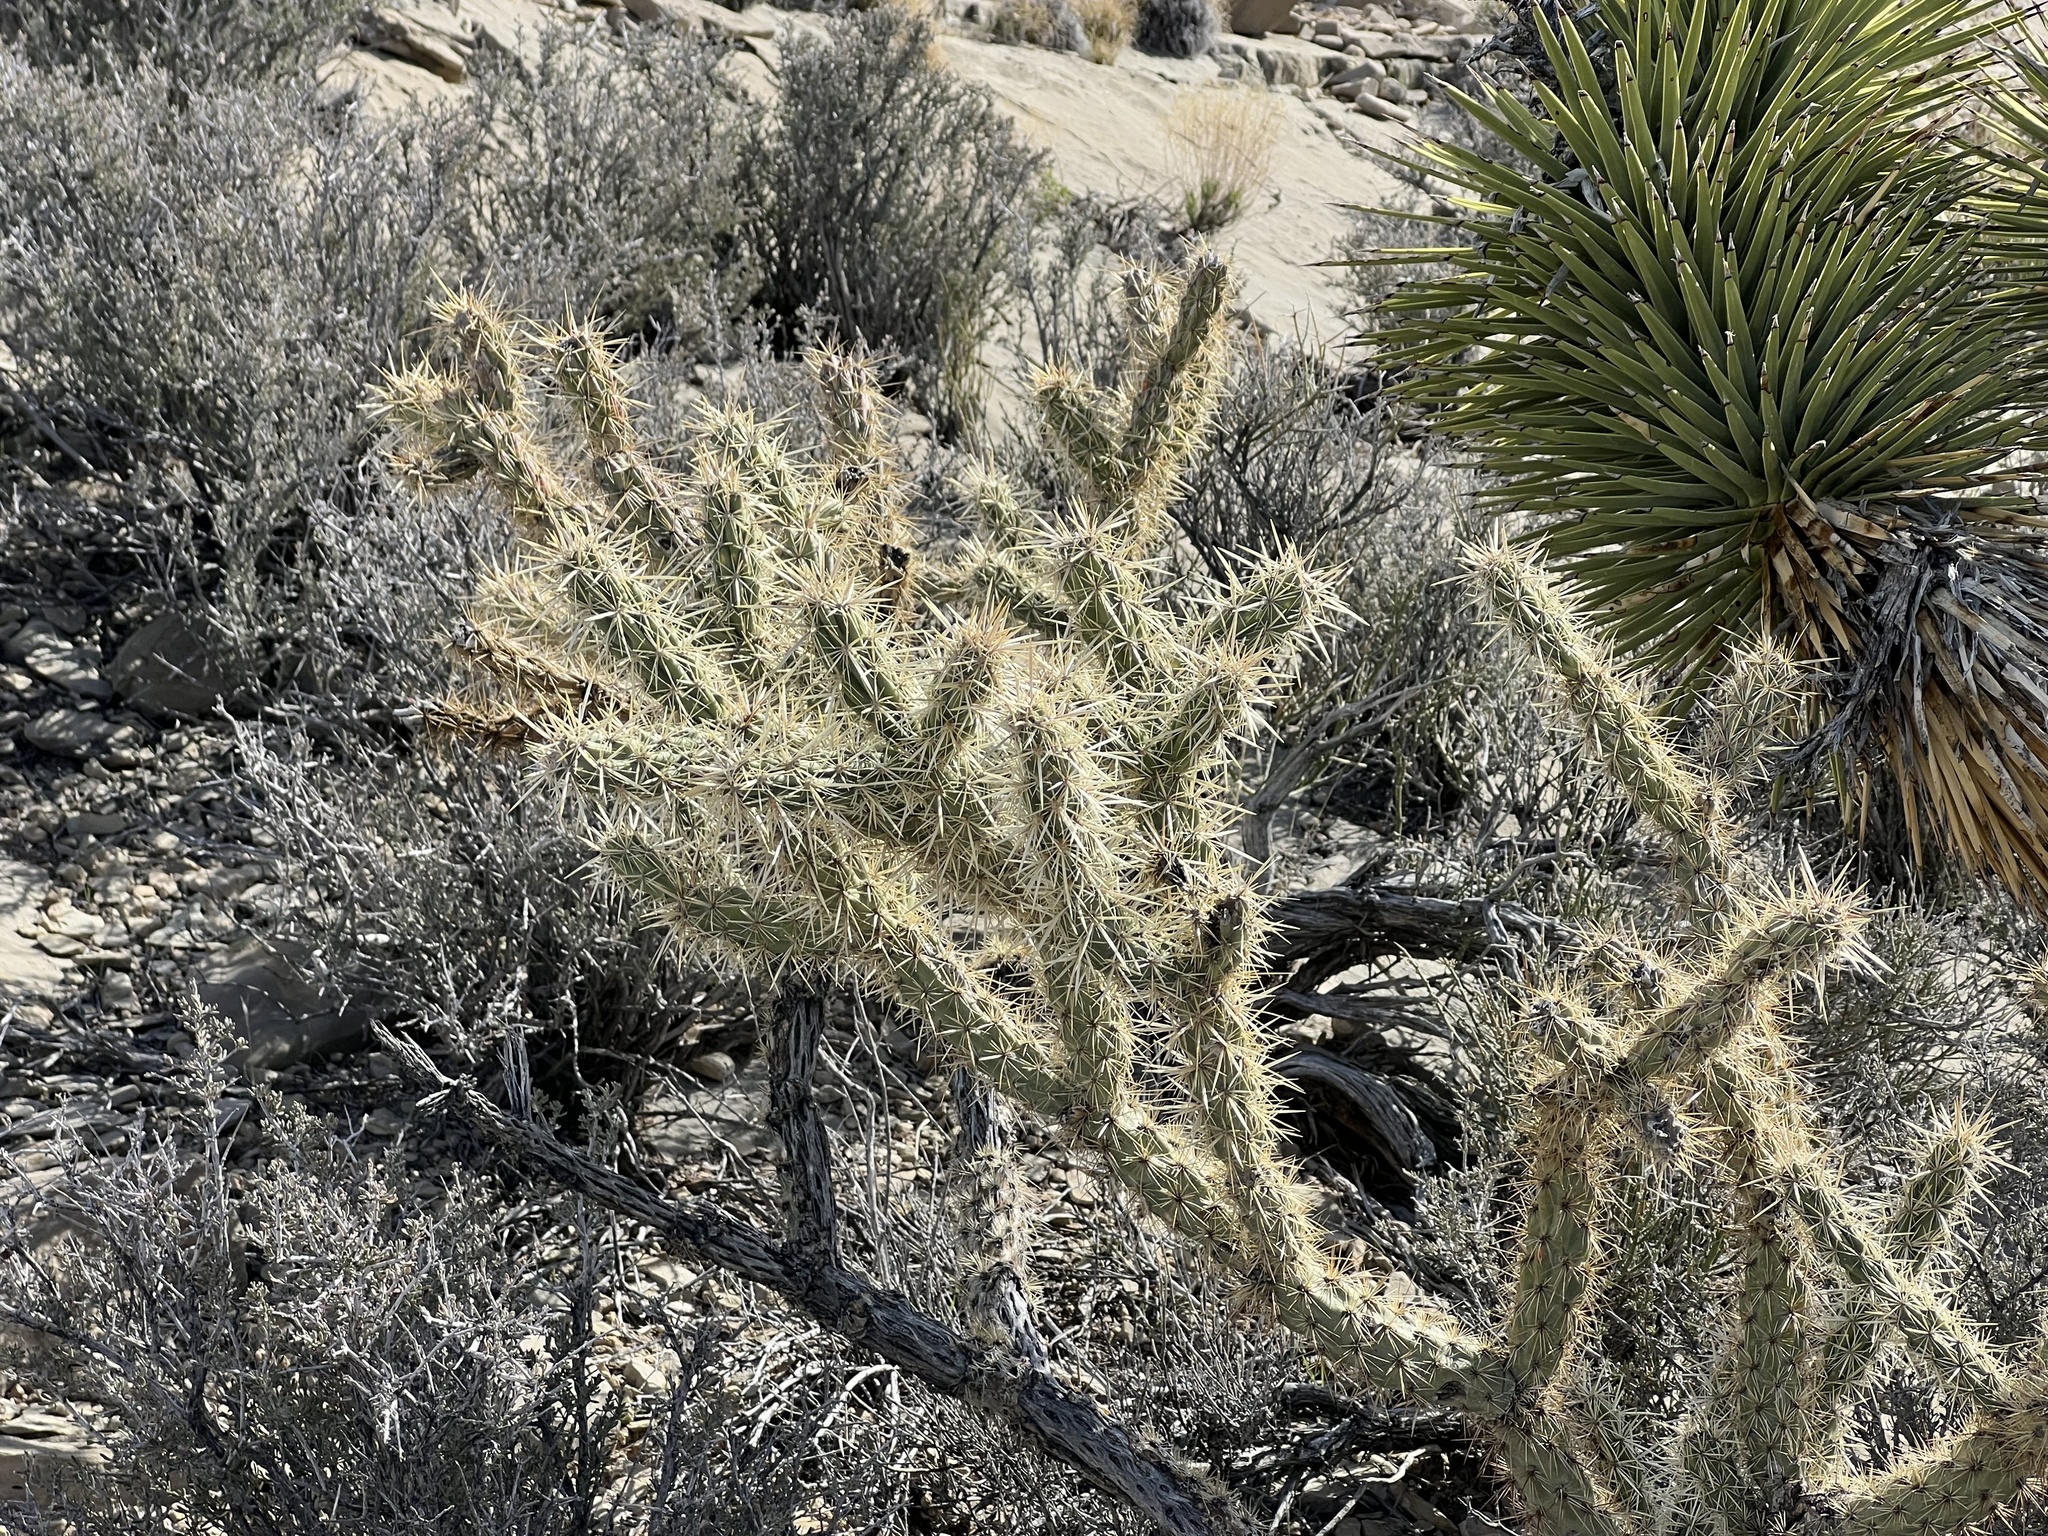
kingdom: Plantae
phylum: Tracheophyta
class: Magnoliopsida
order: Caryophyllales
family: Cactaceae
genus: Cylindropuntia
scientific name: Cylindropuntia acanthocarpa
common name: Buckhorn cholla
